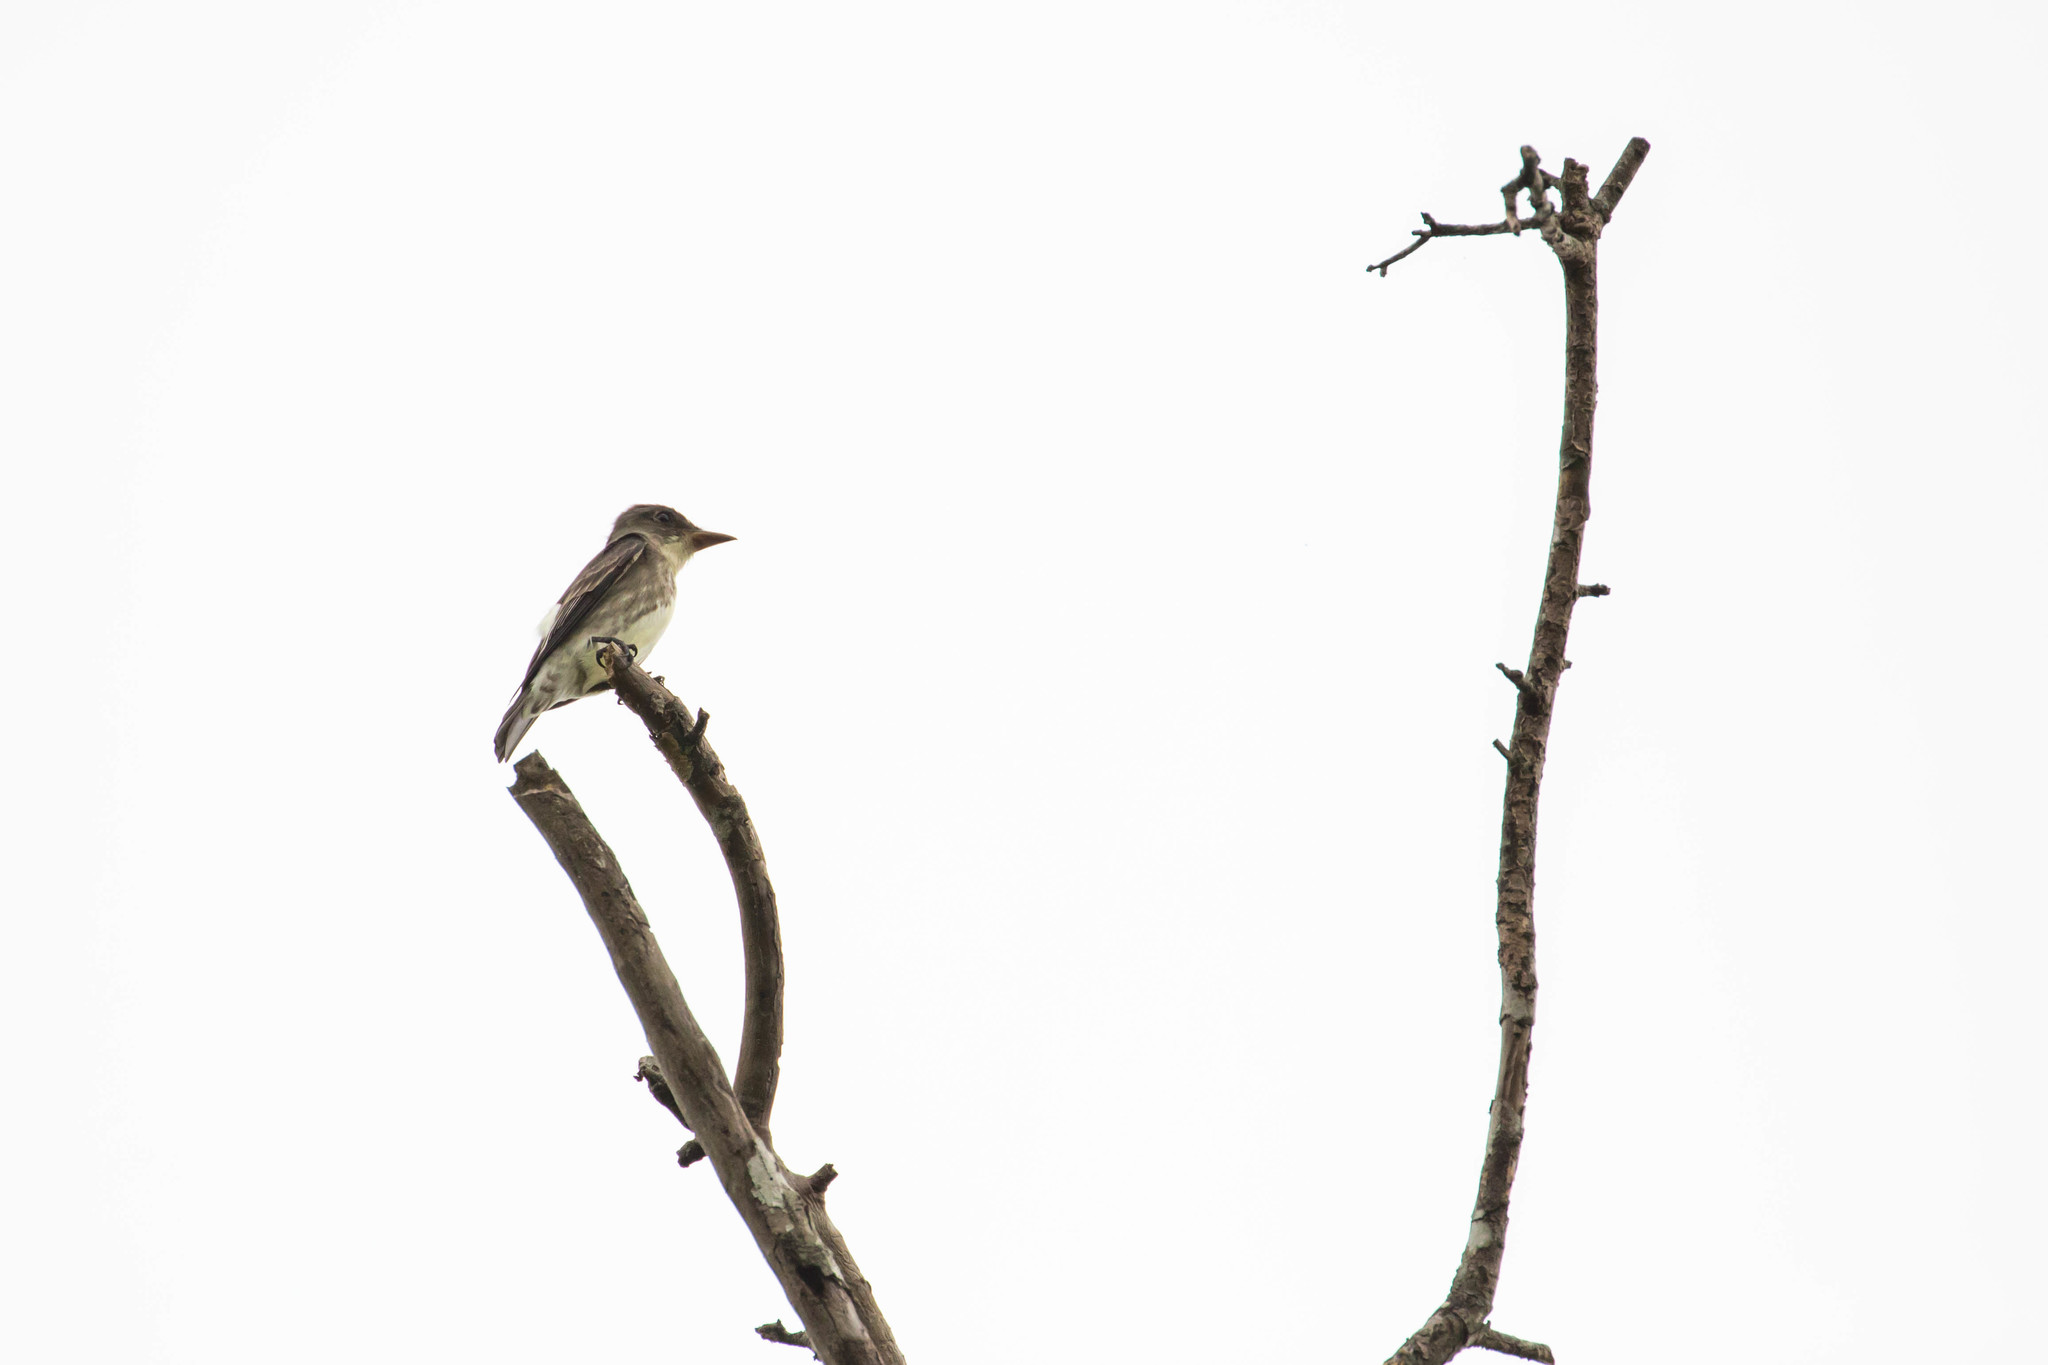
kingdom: Animalia
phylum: Chordata
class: Aves
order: Passeriformes
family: Tyrannidae
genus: Contopus
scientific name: Contopus cooperi
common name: Olive-sided flycatcher
